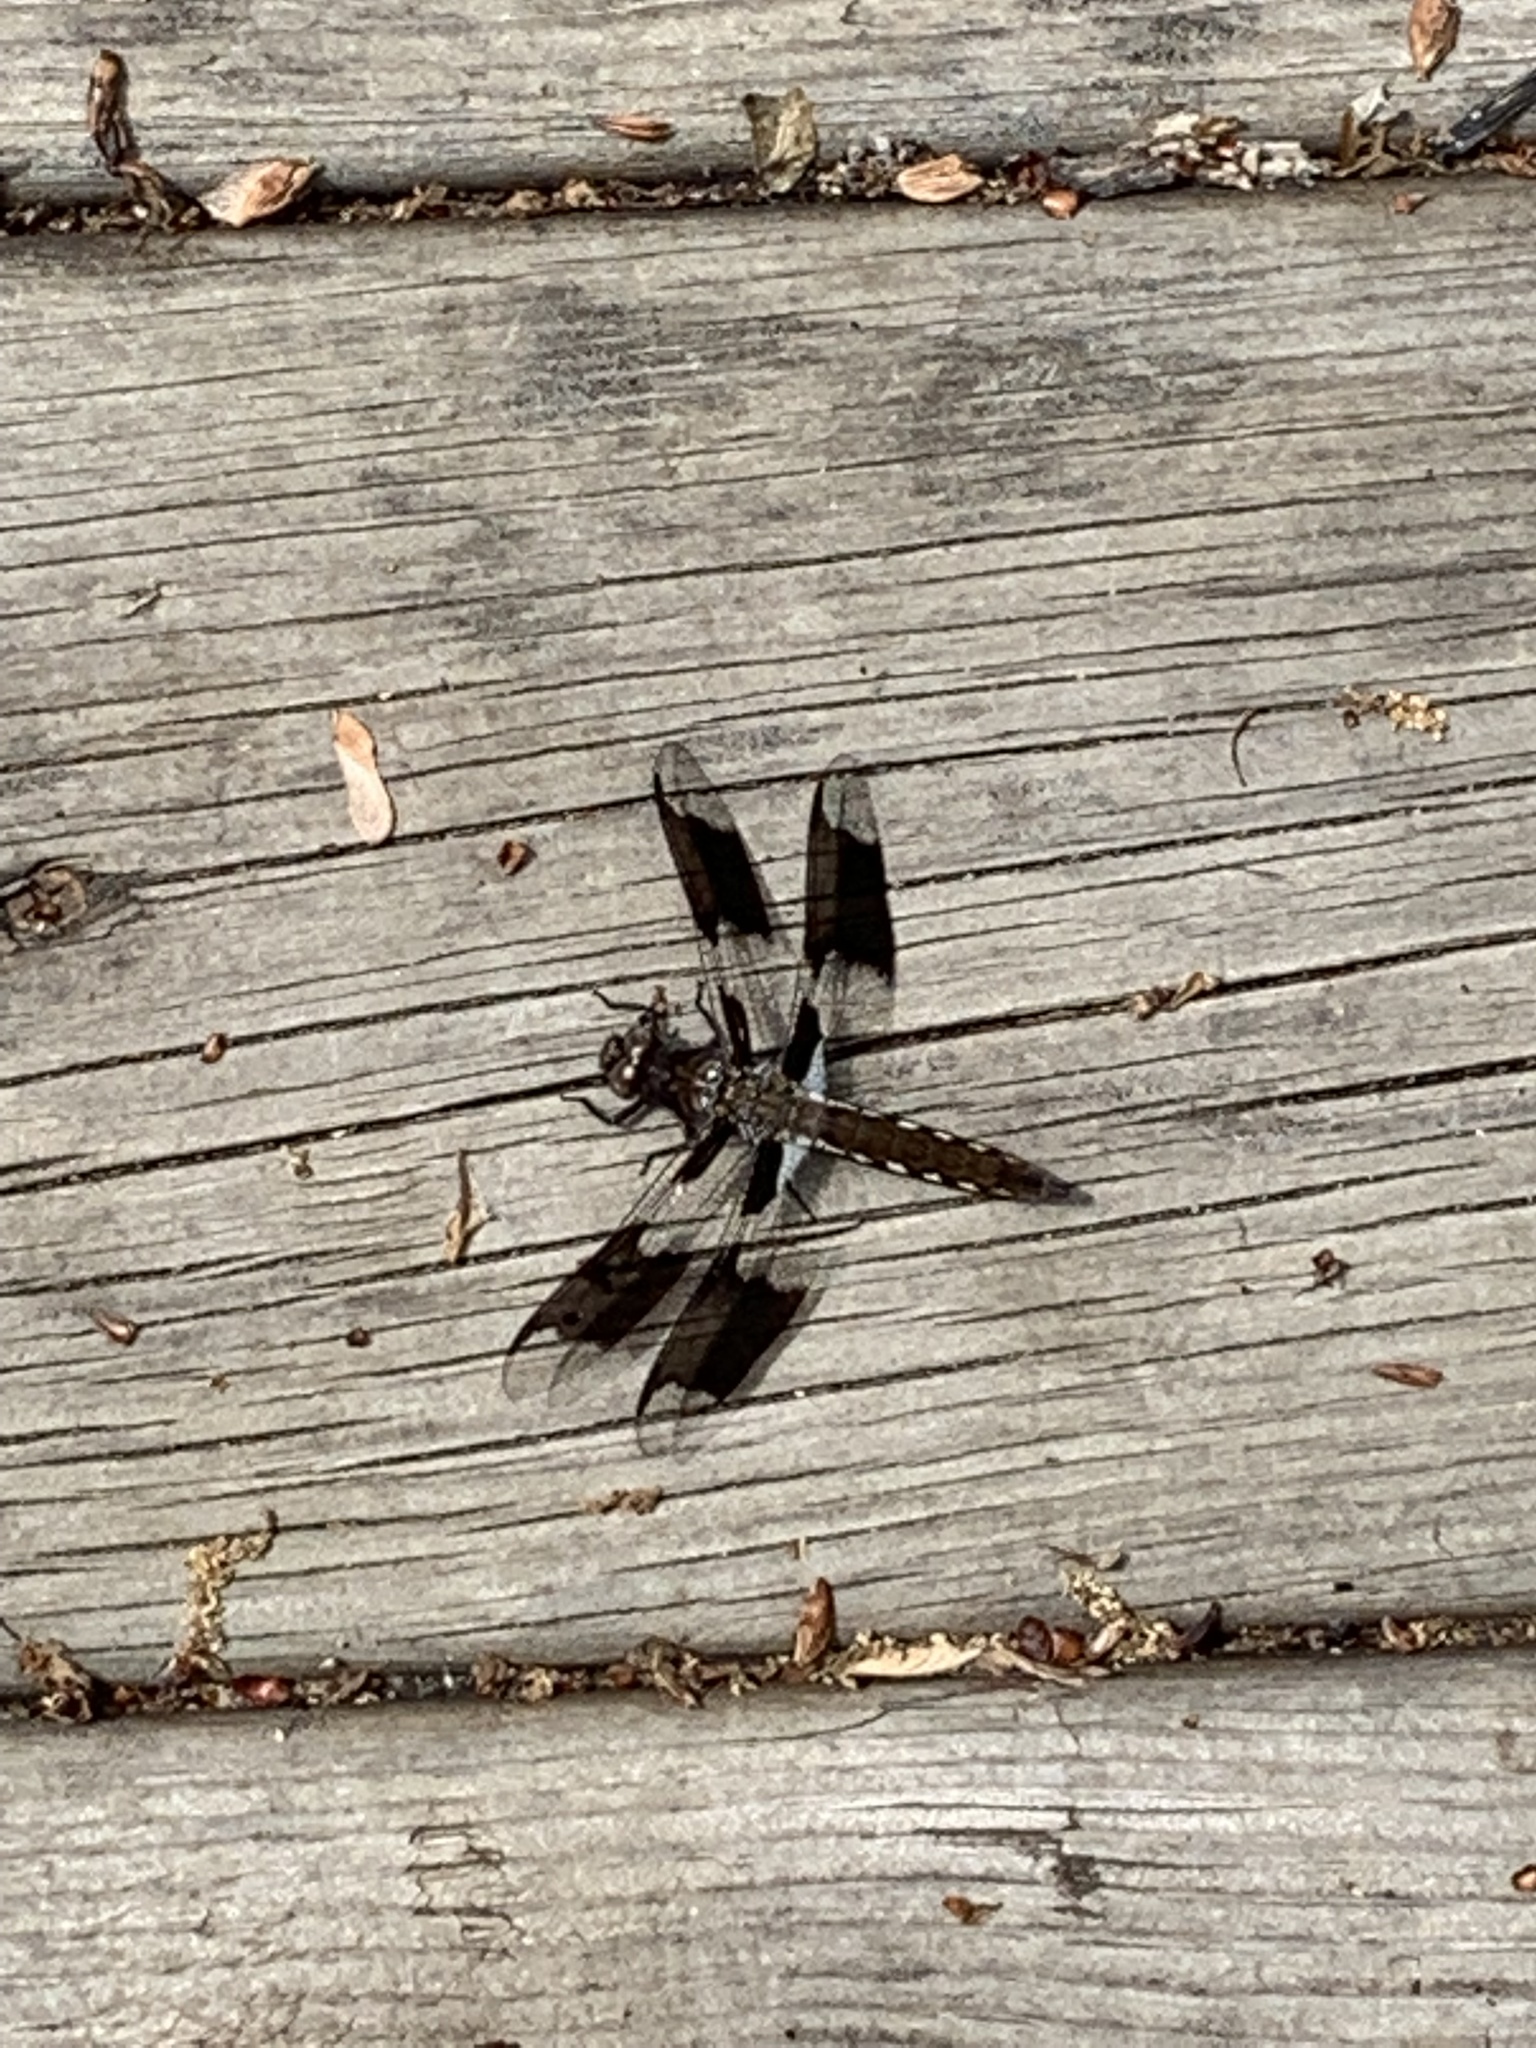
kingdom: Animalia
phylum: Arthropoda
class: Insecta
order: Odonata
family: Libellulidae
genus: Plathemis
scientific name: Plathemis lydia
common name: Common whitetail
